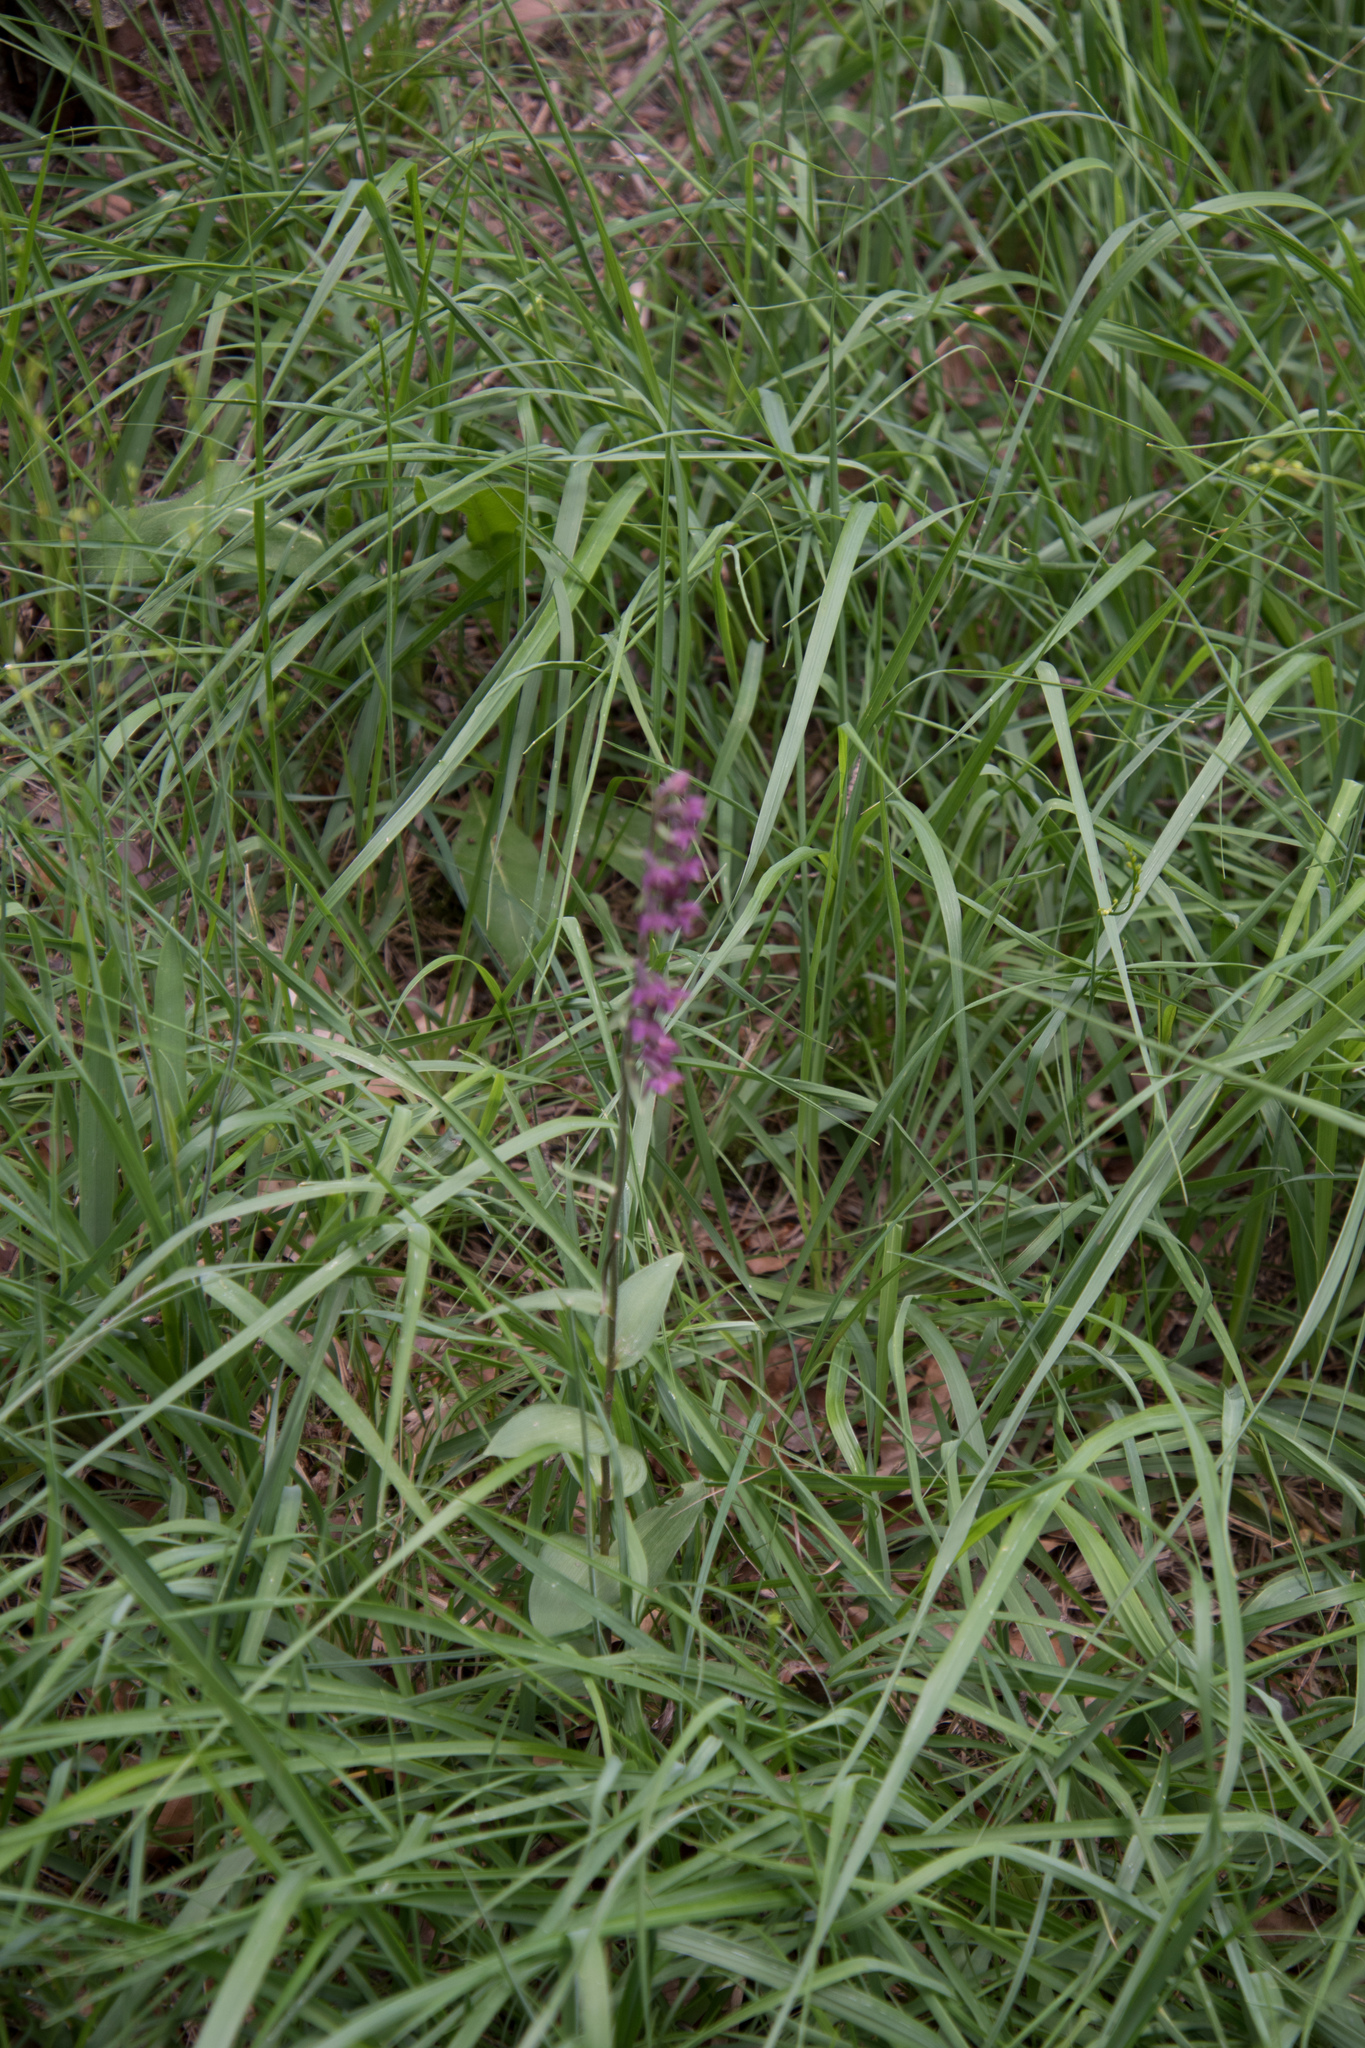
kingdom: Plantae
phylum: Tracheophyta
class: Liliopsida
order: Asparagales
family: Orchidaceae
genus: Epipactis
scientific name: Epipactis atrorubens
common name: Dark-red helleborine
